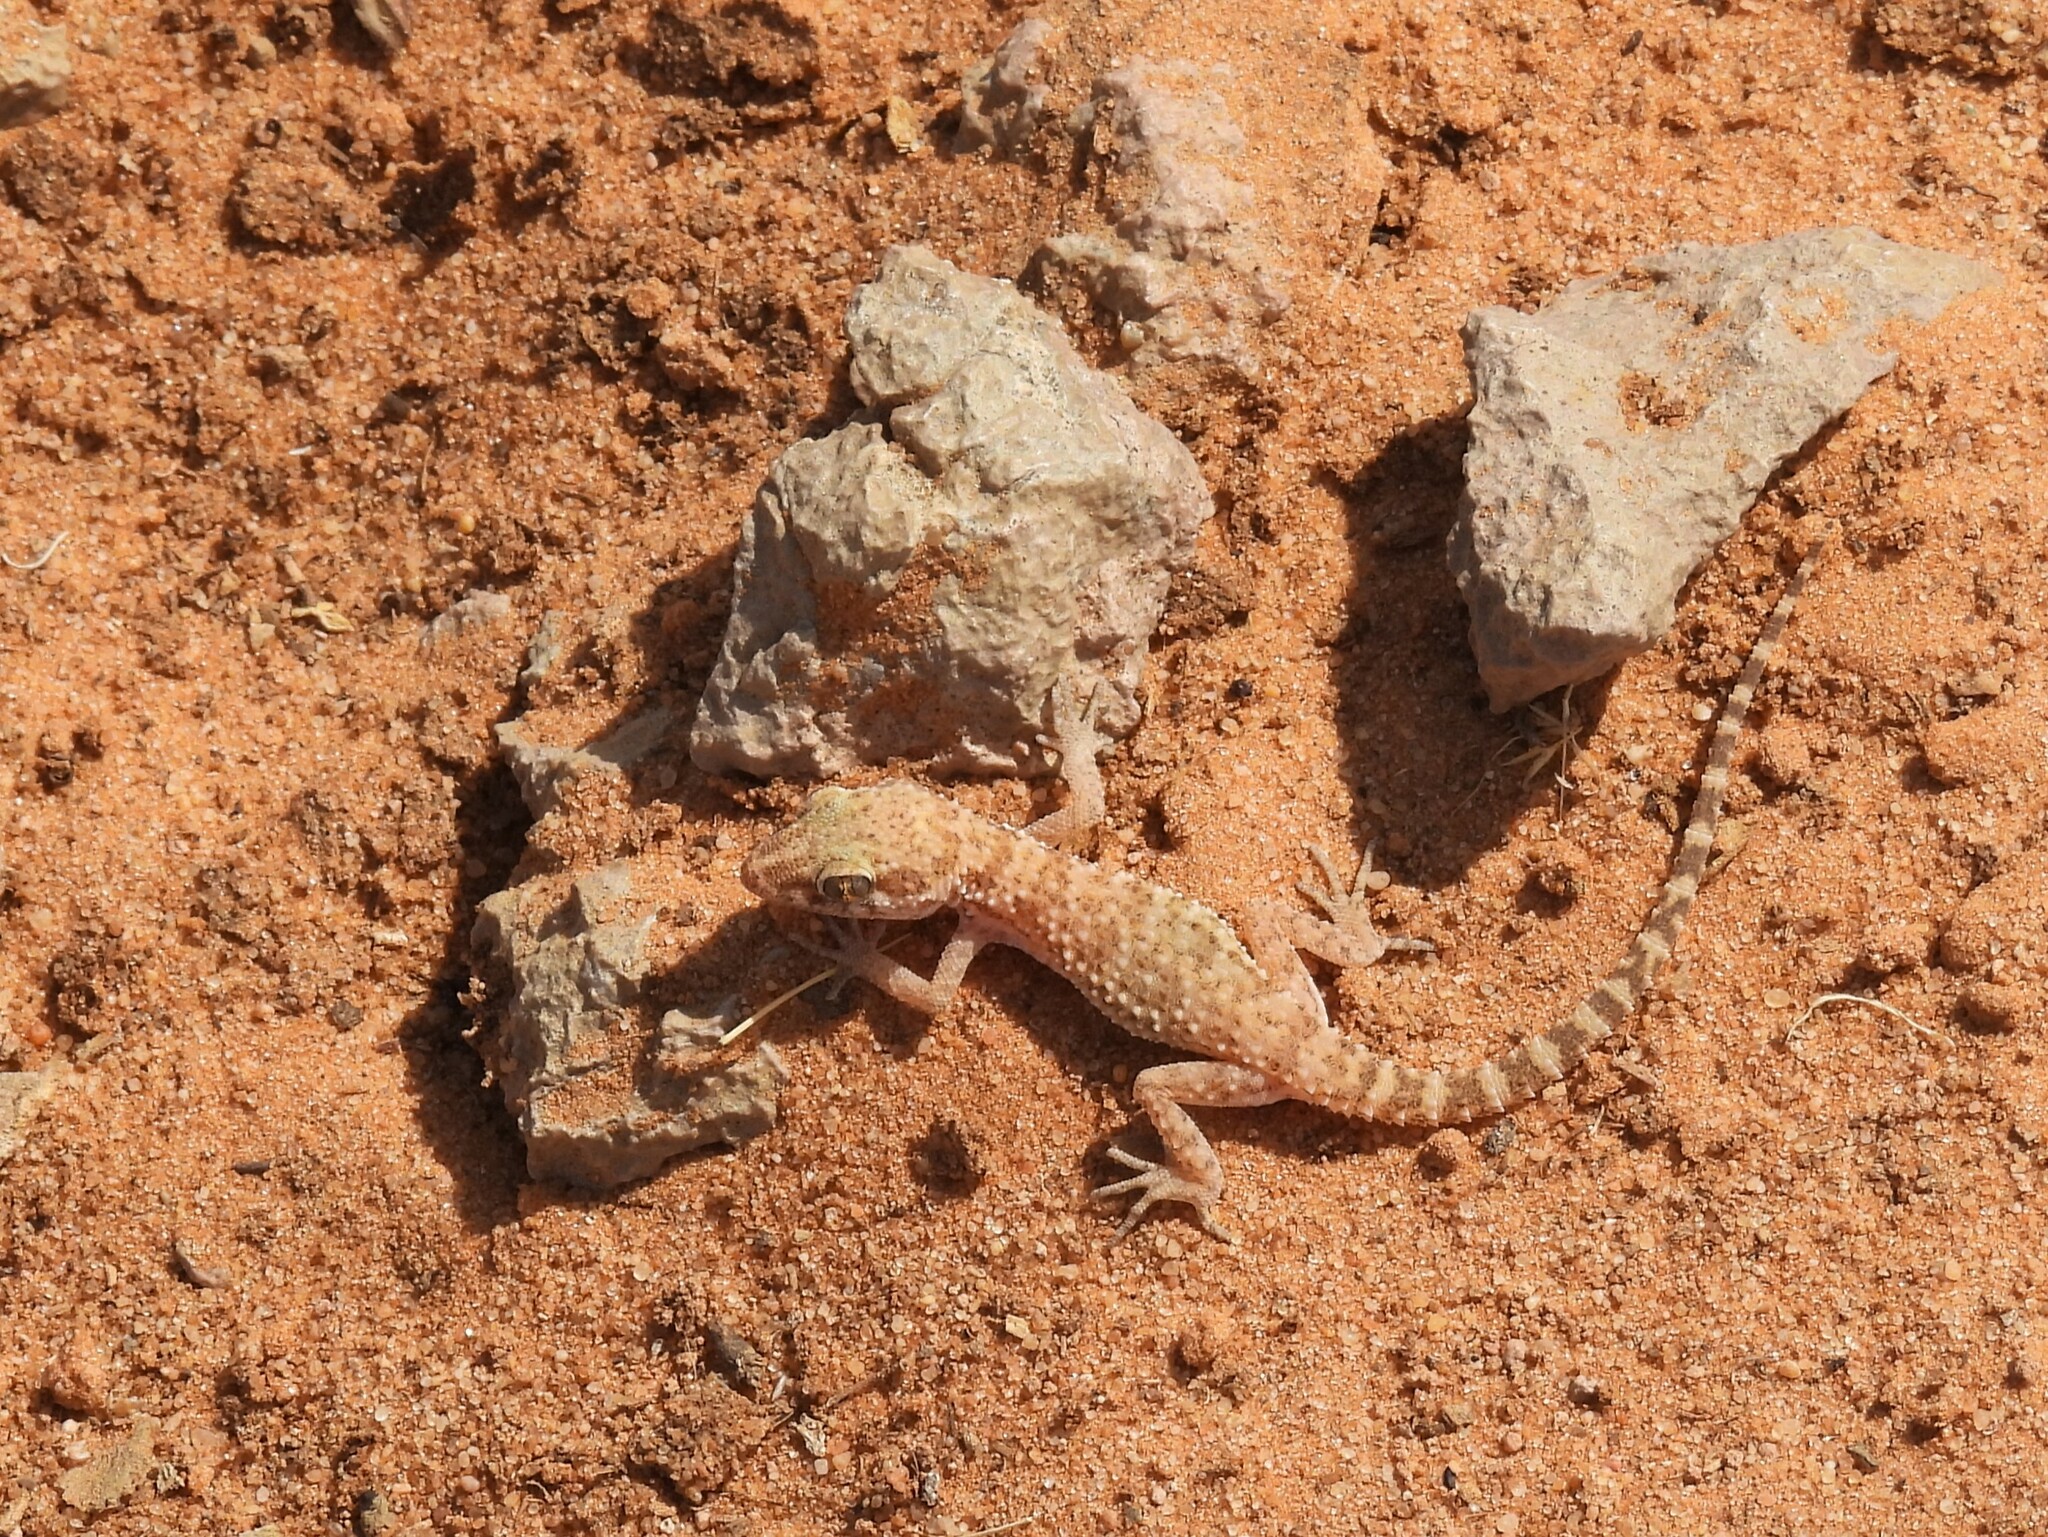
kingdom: Animalia
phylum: Chordata
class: Squamata
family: Gekkonidae
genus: Bunopus
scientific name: Bunopus tuberculatus
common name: Southern tuberculated gecko
